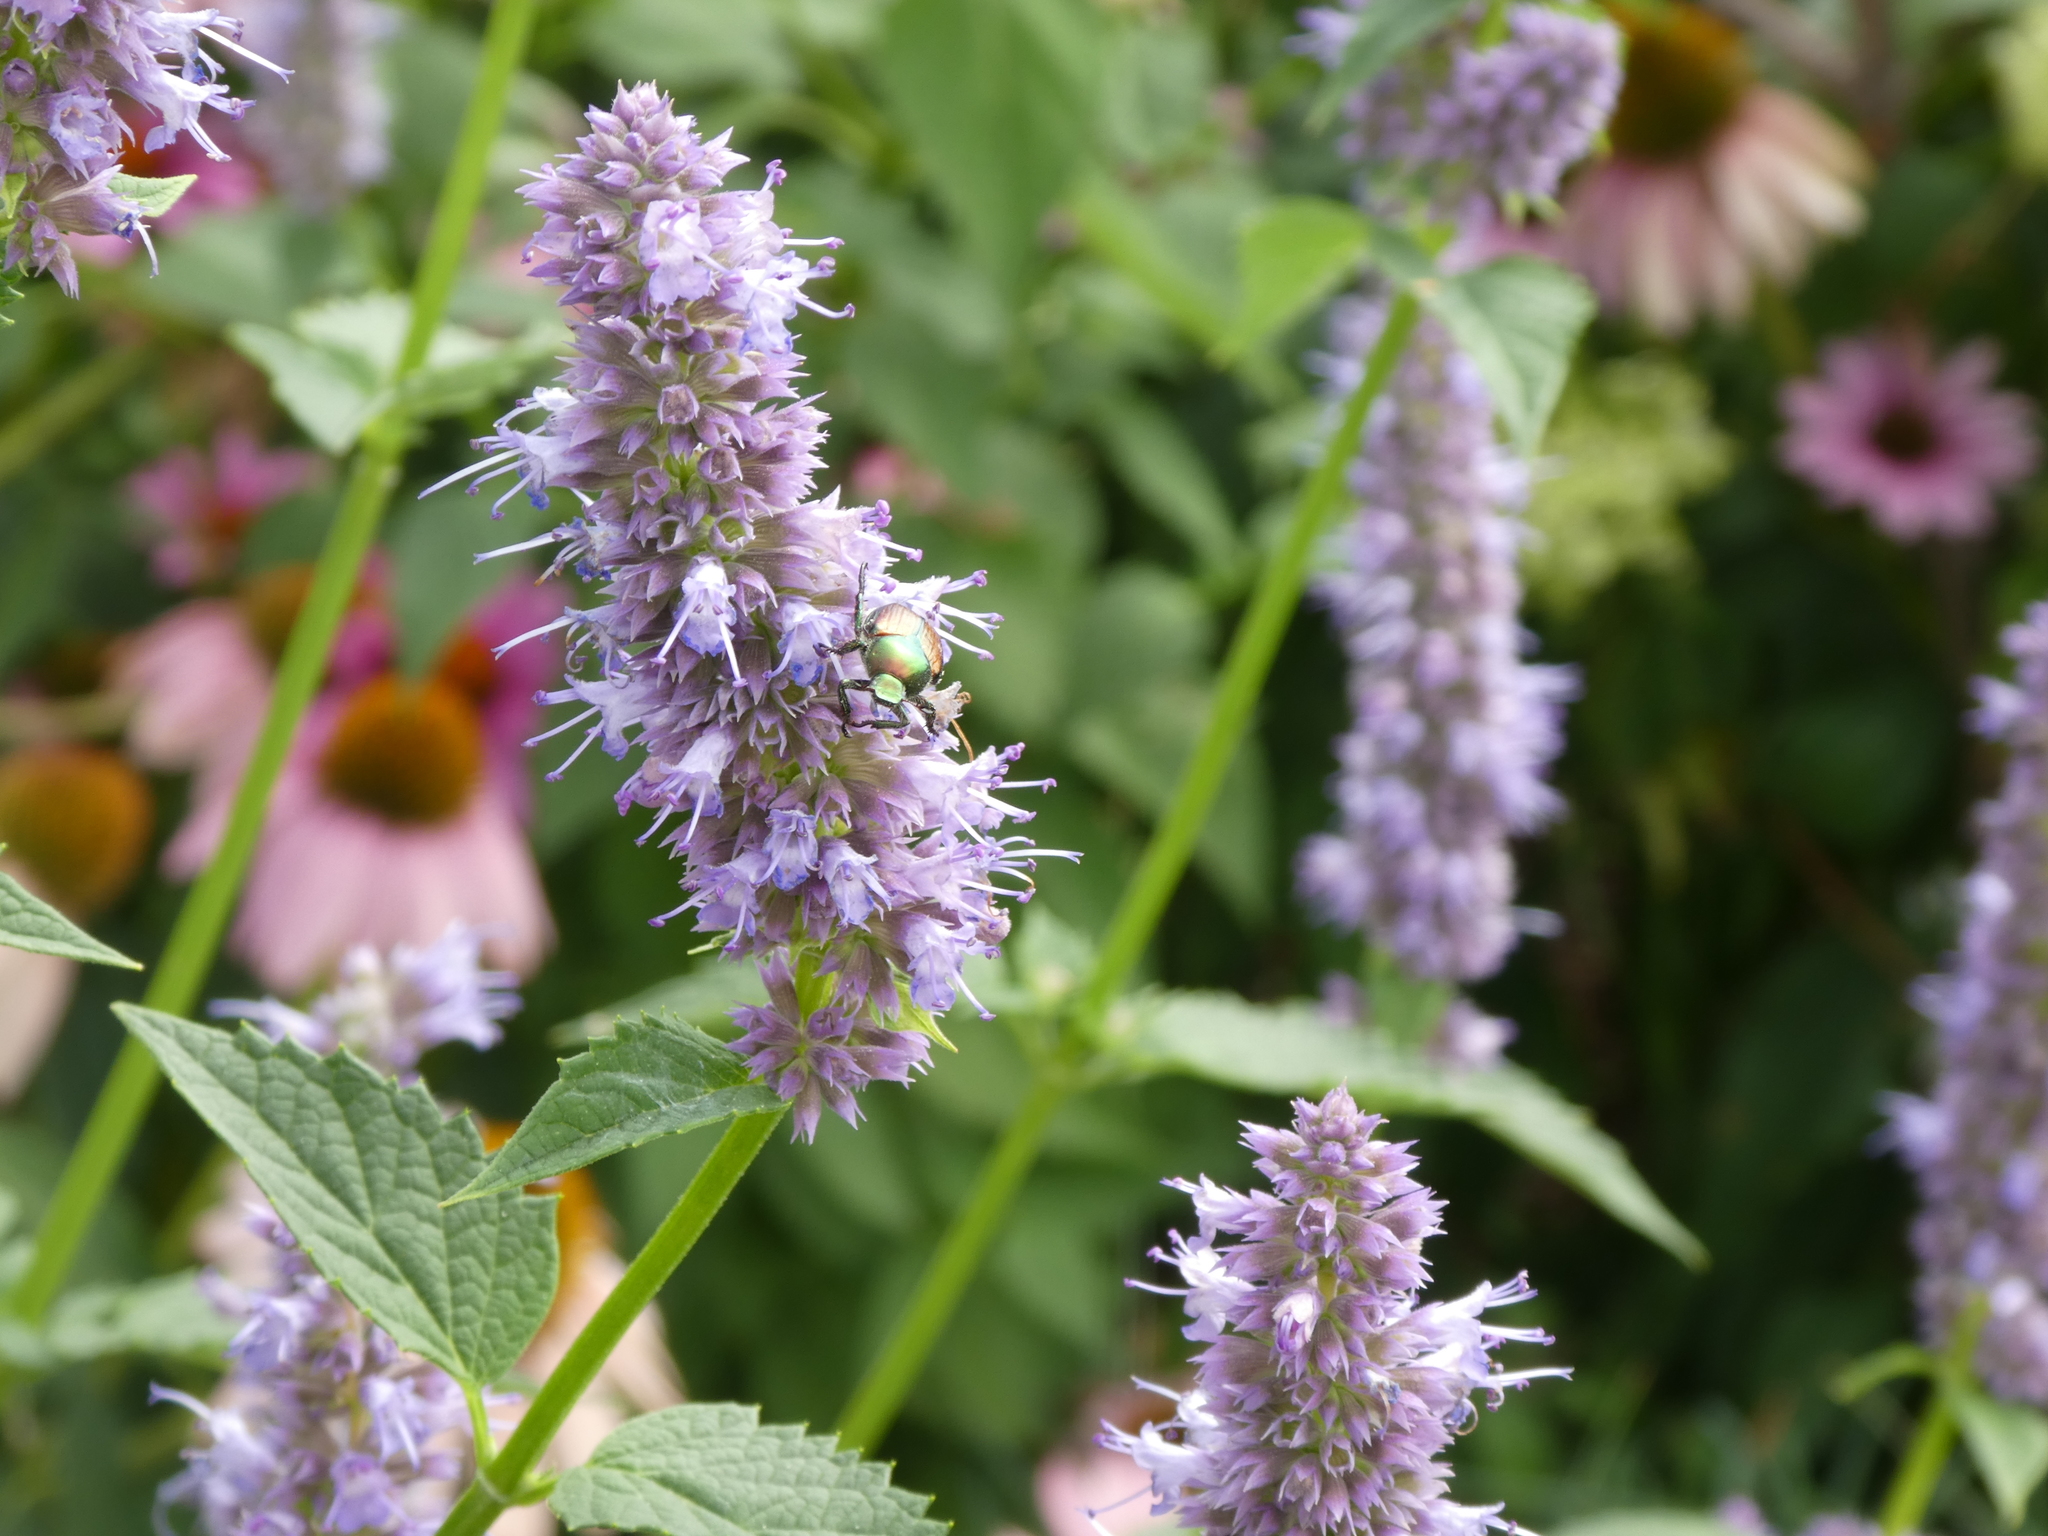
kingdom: Animalia
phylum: Arthropoda
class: Insecta
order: Coleoptera
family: Scarabaeidae
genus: Popillia
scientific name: Popillia japonica
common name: Japanese beetle
